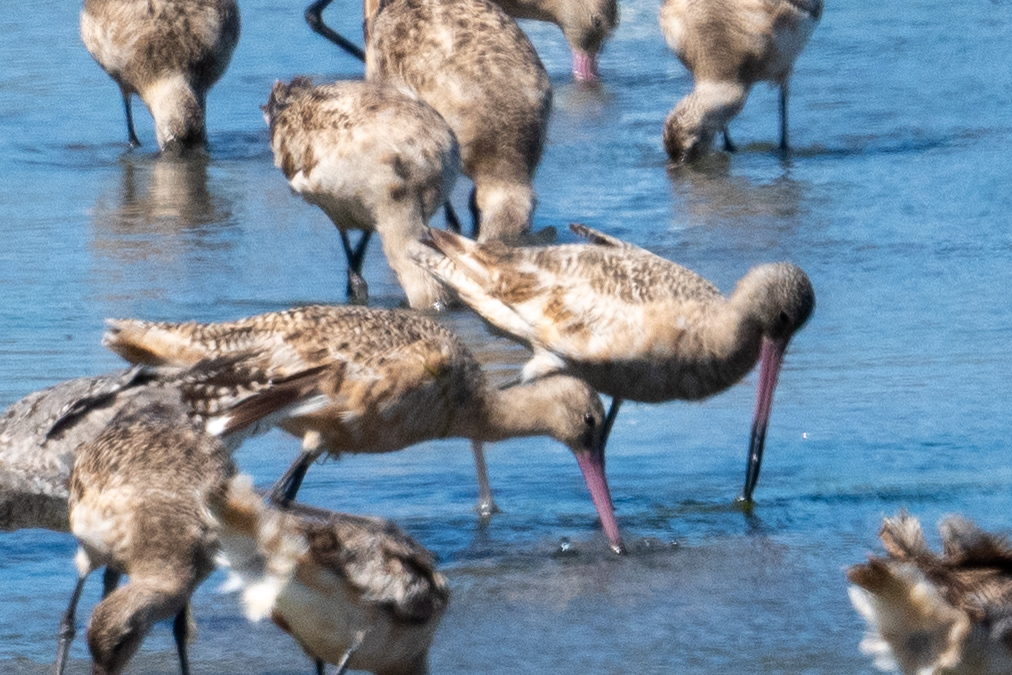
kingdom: Animalia
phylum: Chordata
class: Aves
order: Charadriiformes
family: Scolopacidae
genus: Limosa
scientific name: Limosa fedoa
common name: Marbled godwit
